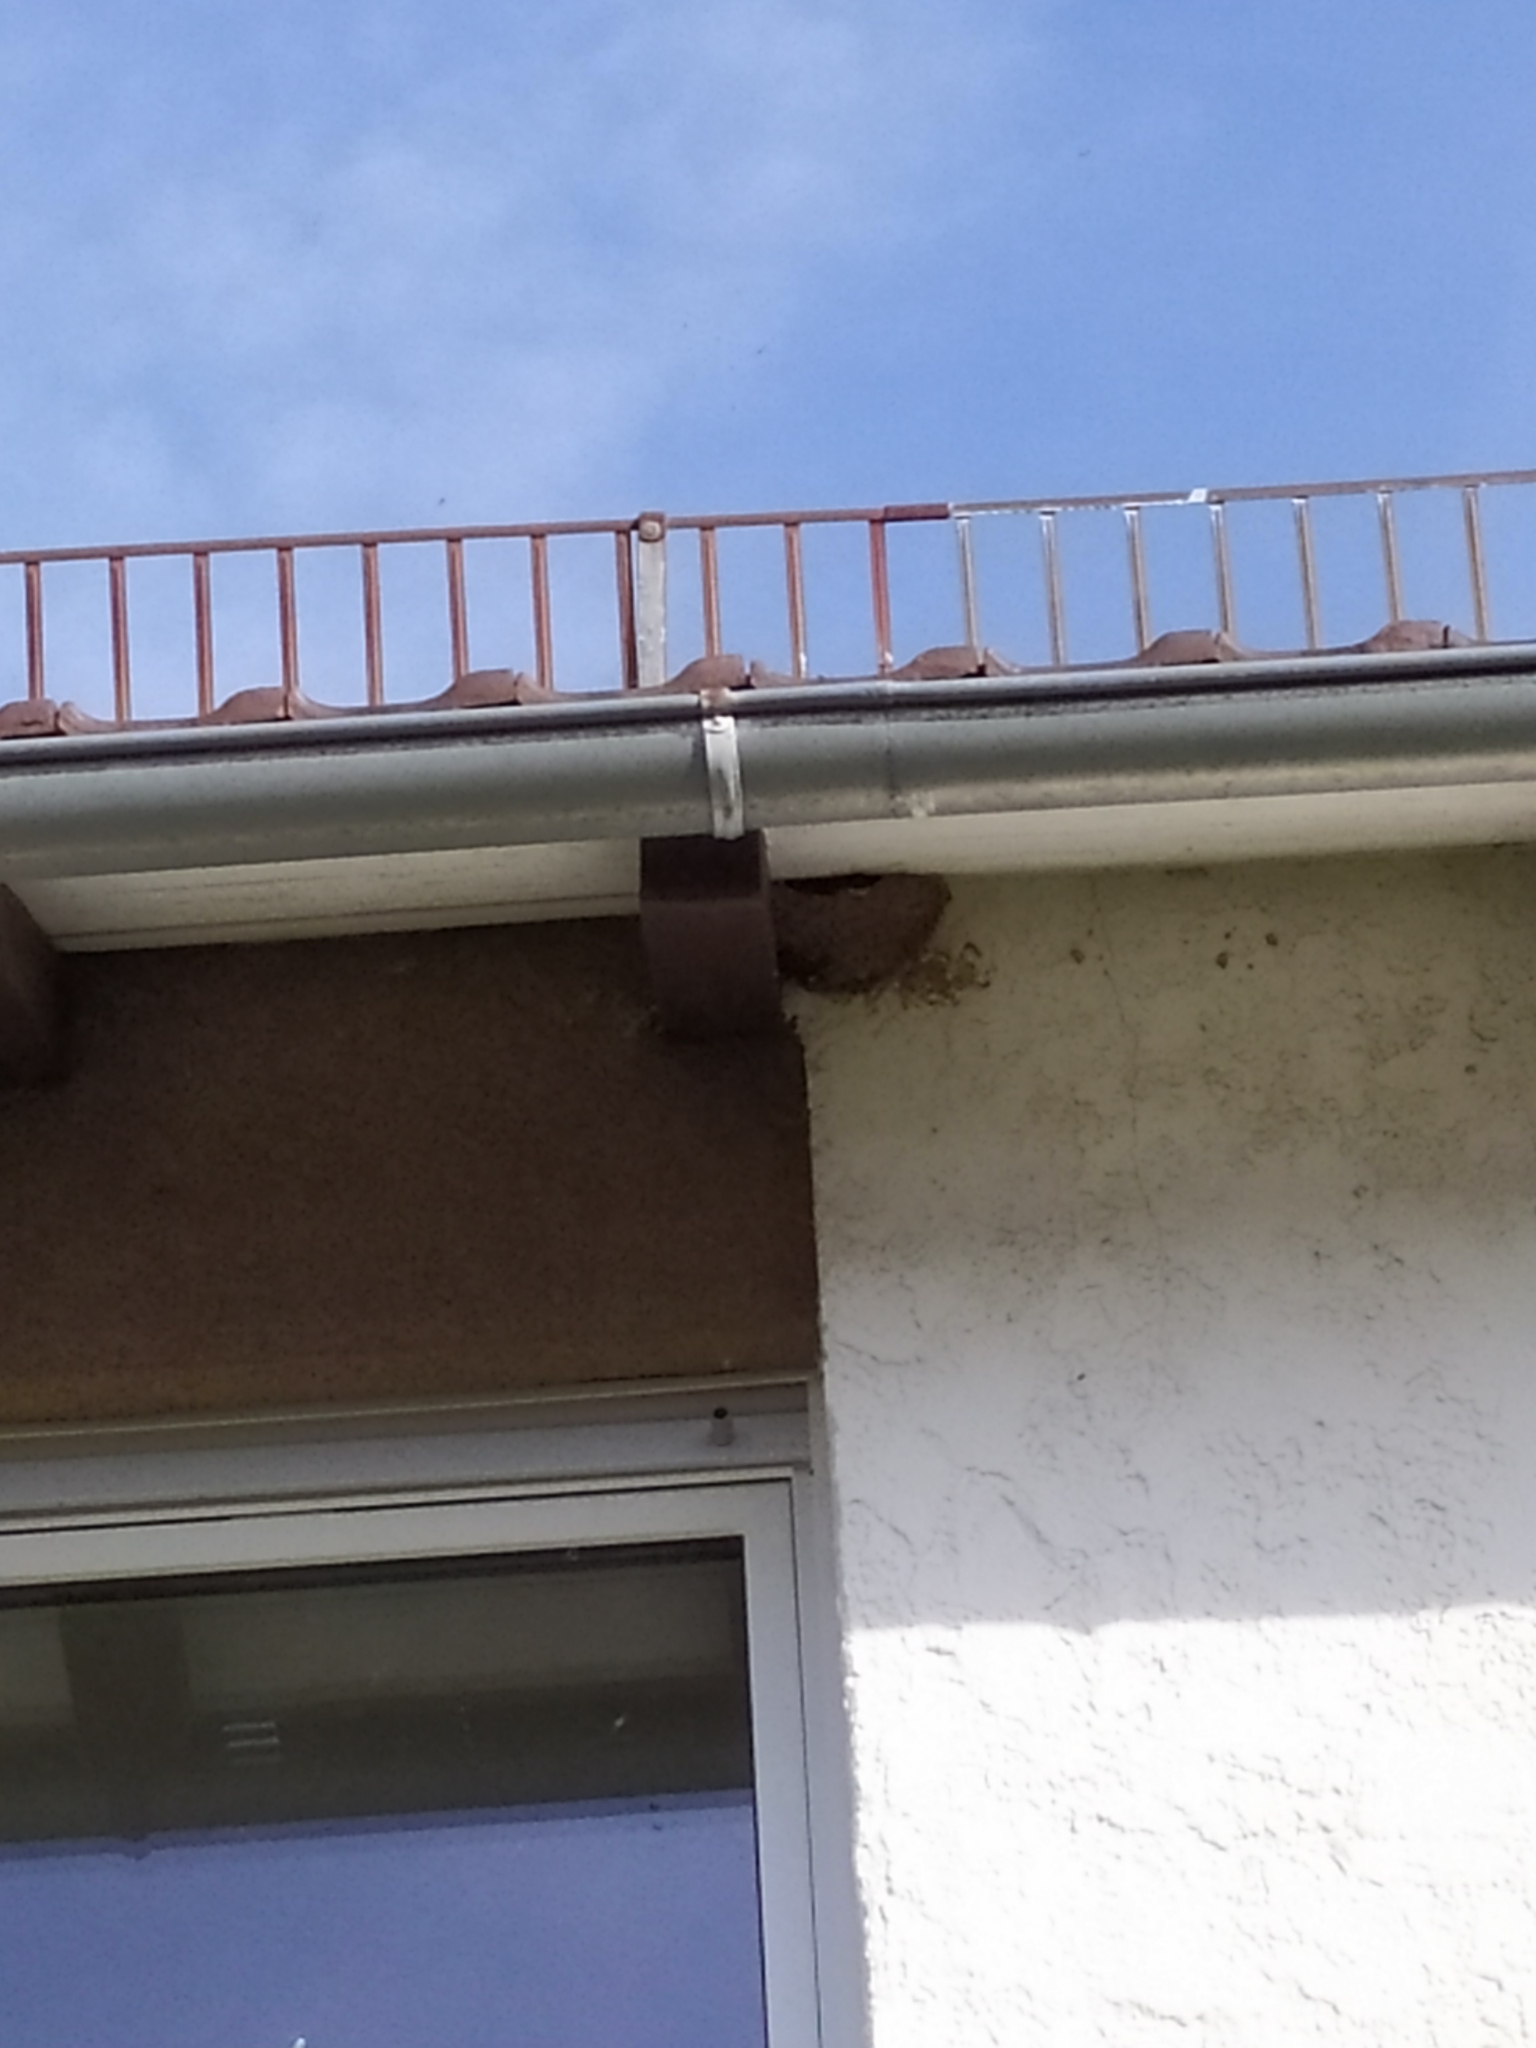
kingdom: Animalia
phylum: Chordata
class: Aves
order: Passeriformes
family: Hirundinidae
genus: Delichon
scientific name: Delichon urbicum
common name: Common house martin
